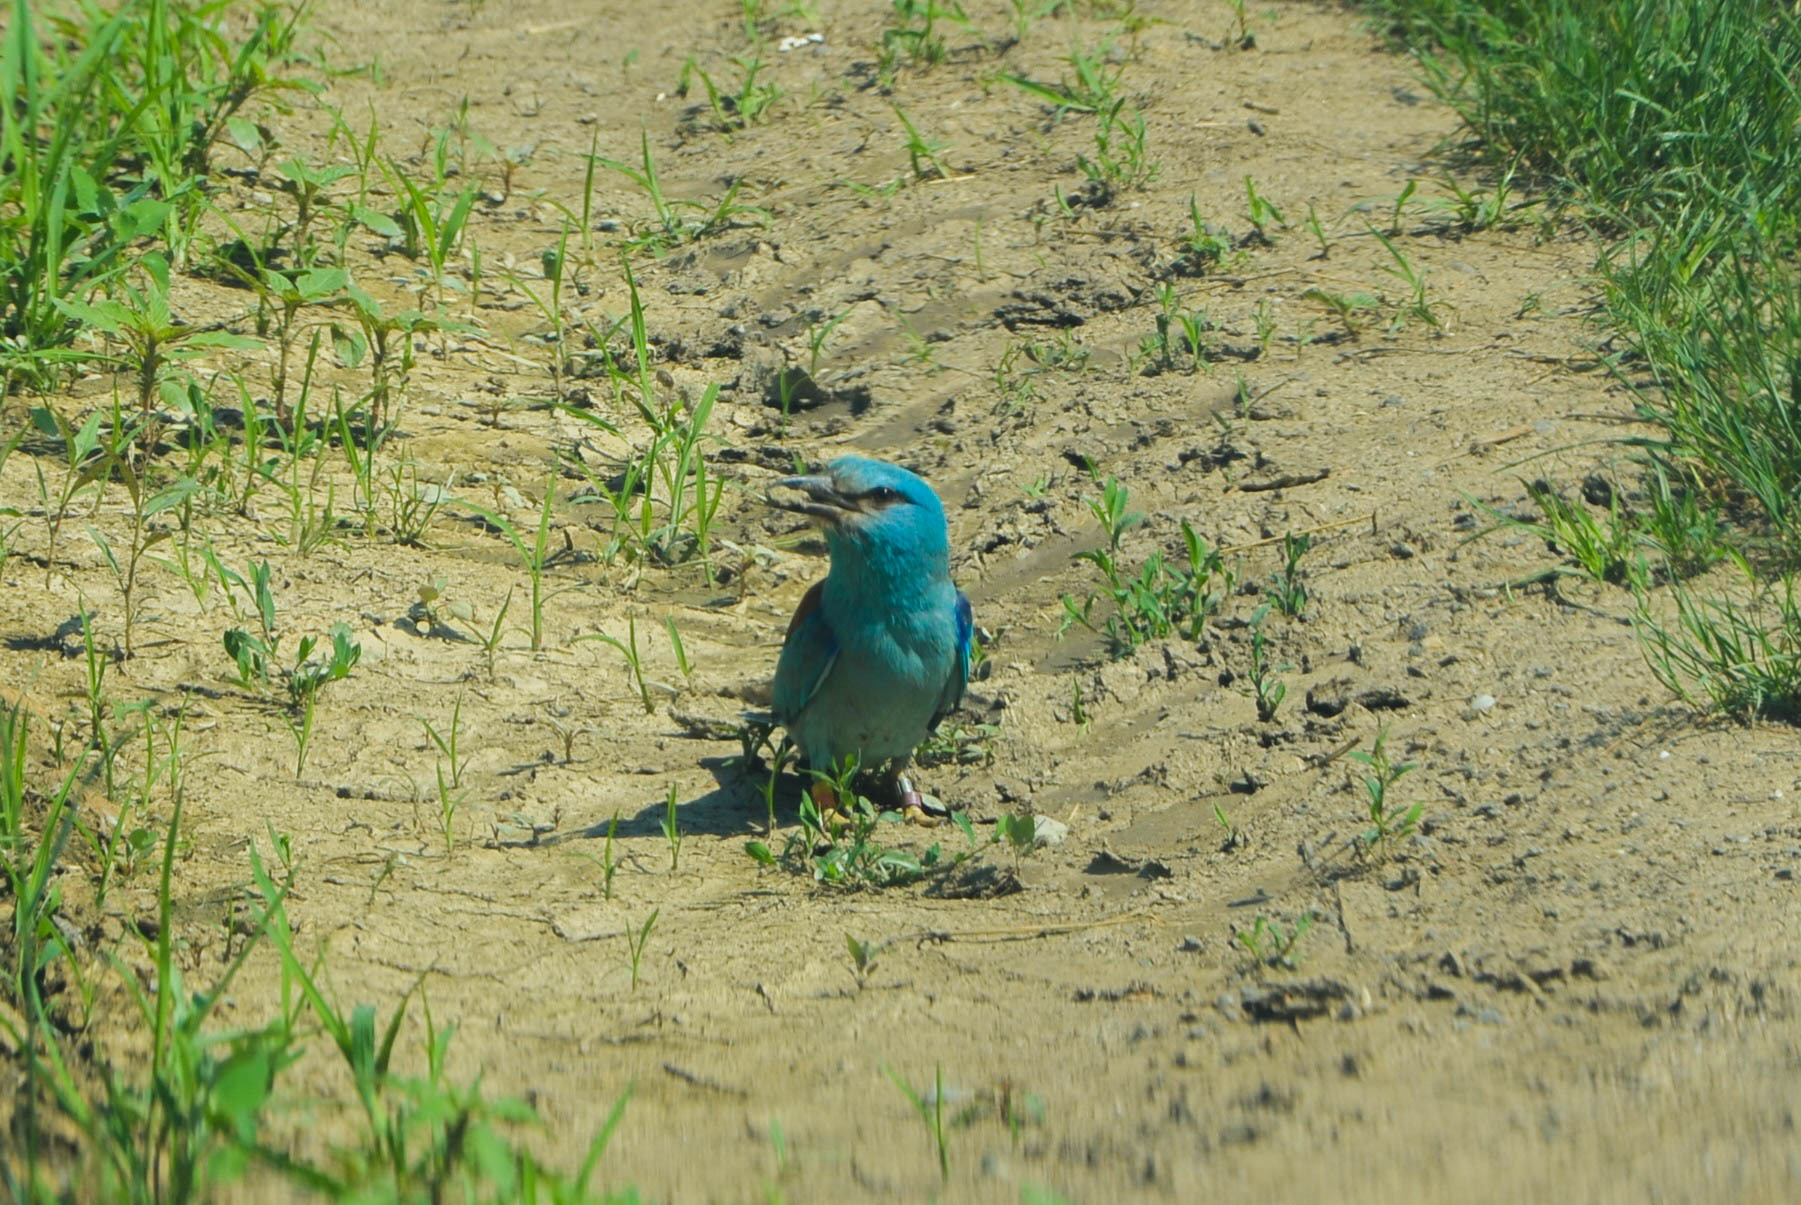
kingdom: Animalia
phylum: Chordata
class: Aves
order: Coraciiformes
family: Coraciidae
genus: Coracias
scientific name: Coracias garrulus
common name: European roller
